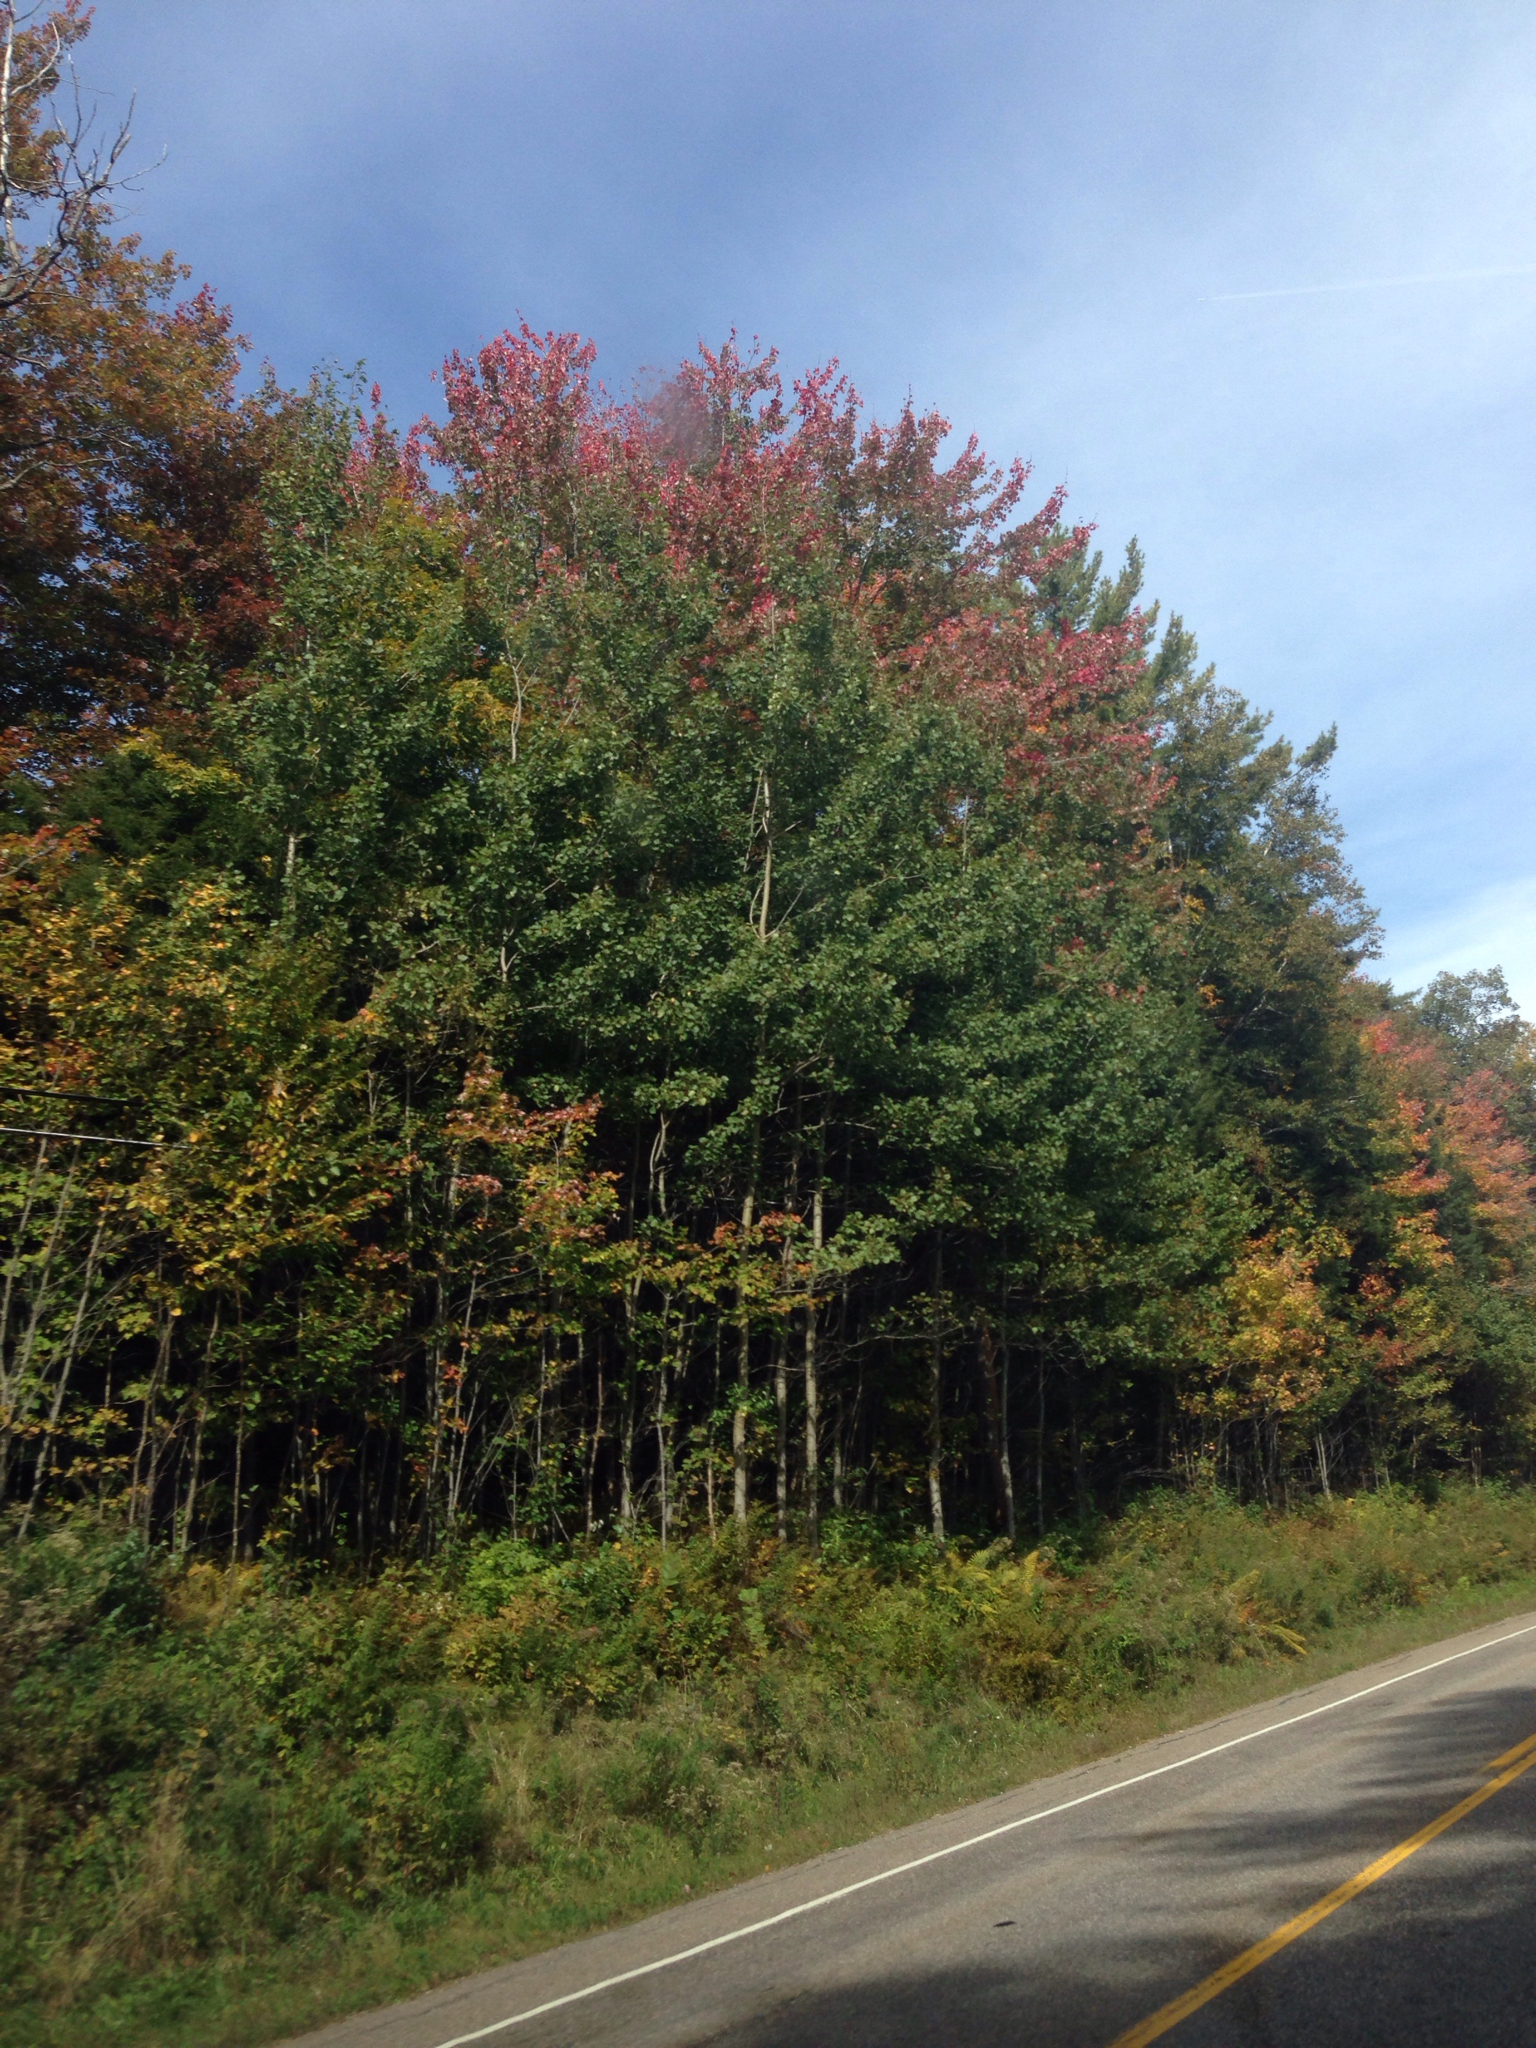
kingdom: Plantae
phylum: Tracheophyta
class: Magnoliopsida
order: Sapindales
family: Sapindaceae
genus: Acer
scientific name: Acer rubrum
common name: Red maple
